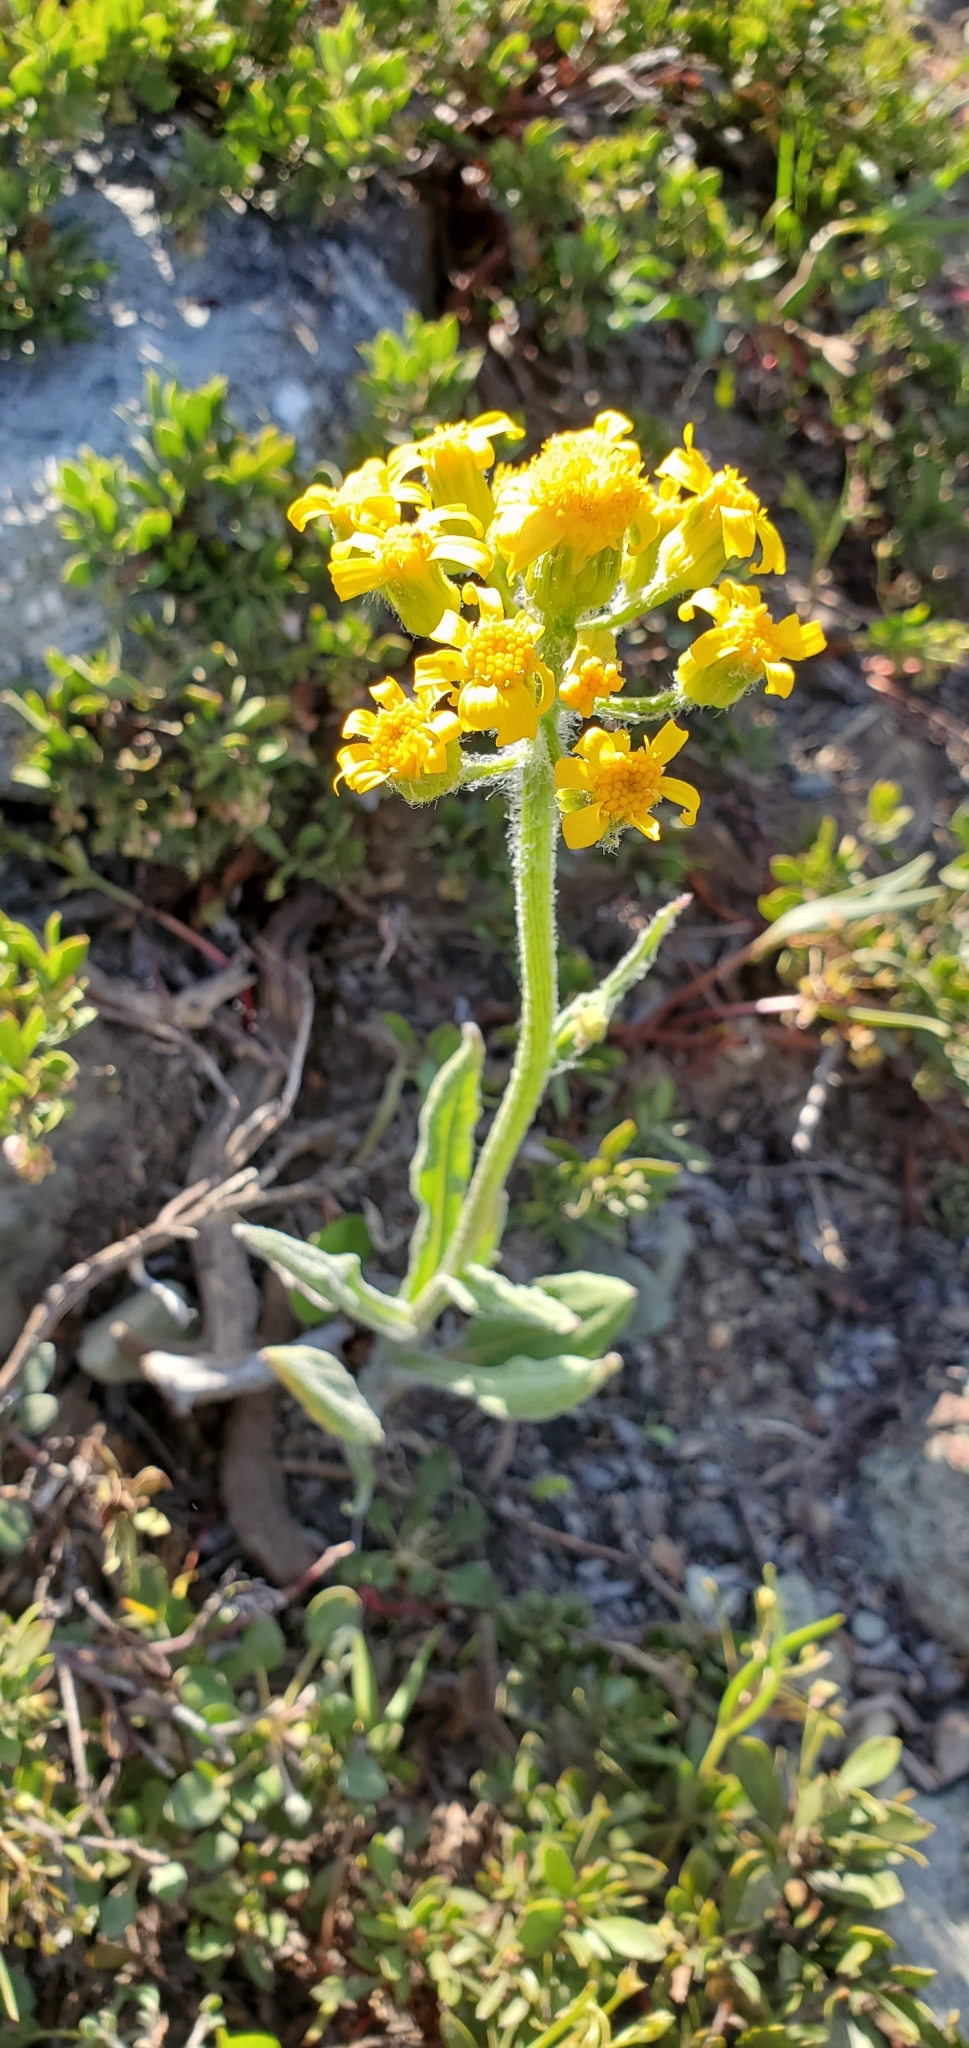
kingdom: Plantae
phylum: Tracheophyta
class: Magnoliopsida
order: Asterales
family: Asteraceae
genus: Senecio
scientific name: Senecio integerrimus
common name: Gaugeplant
